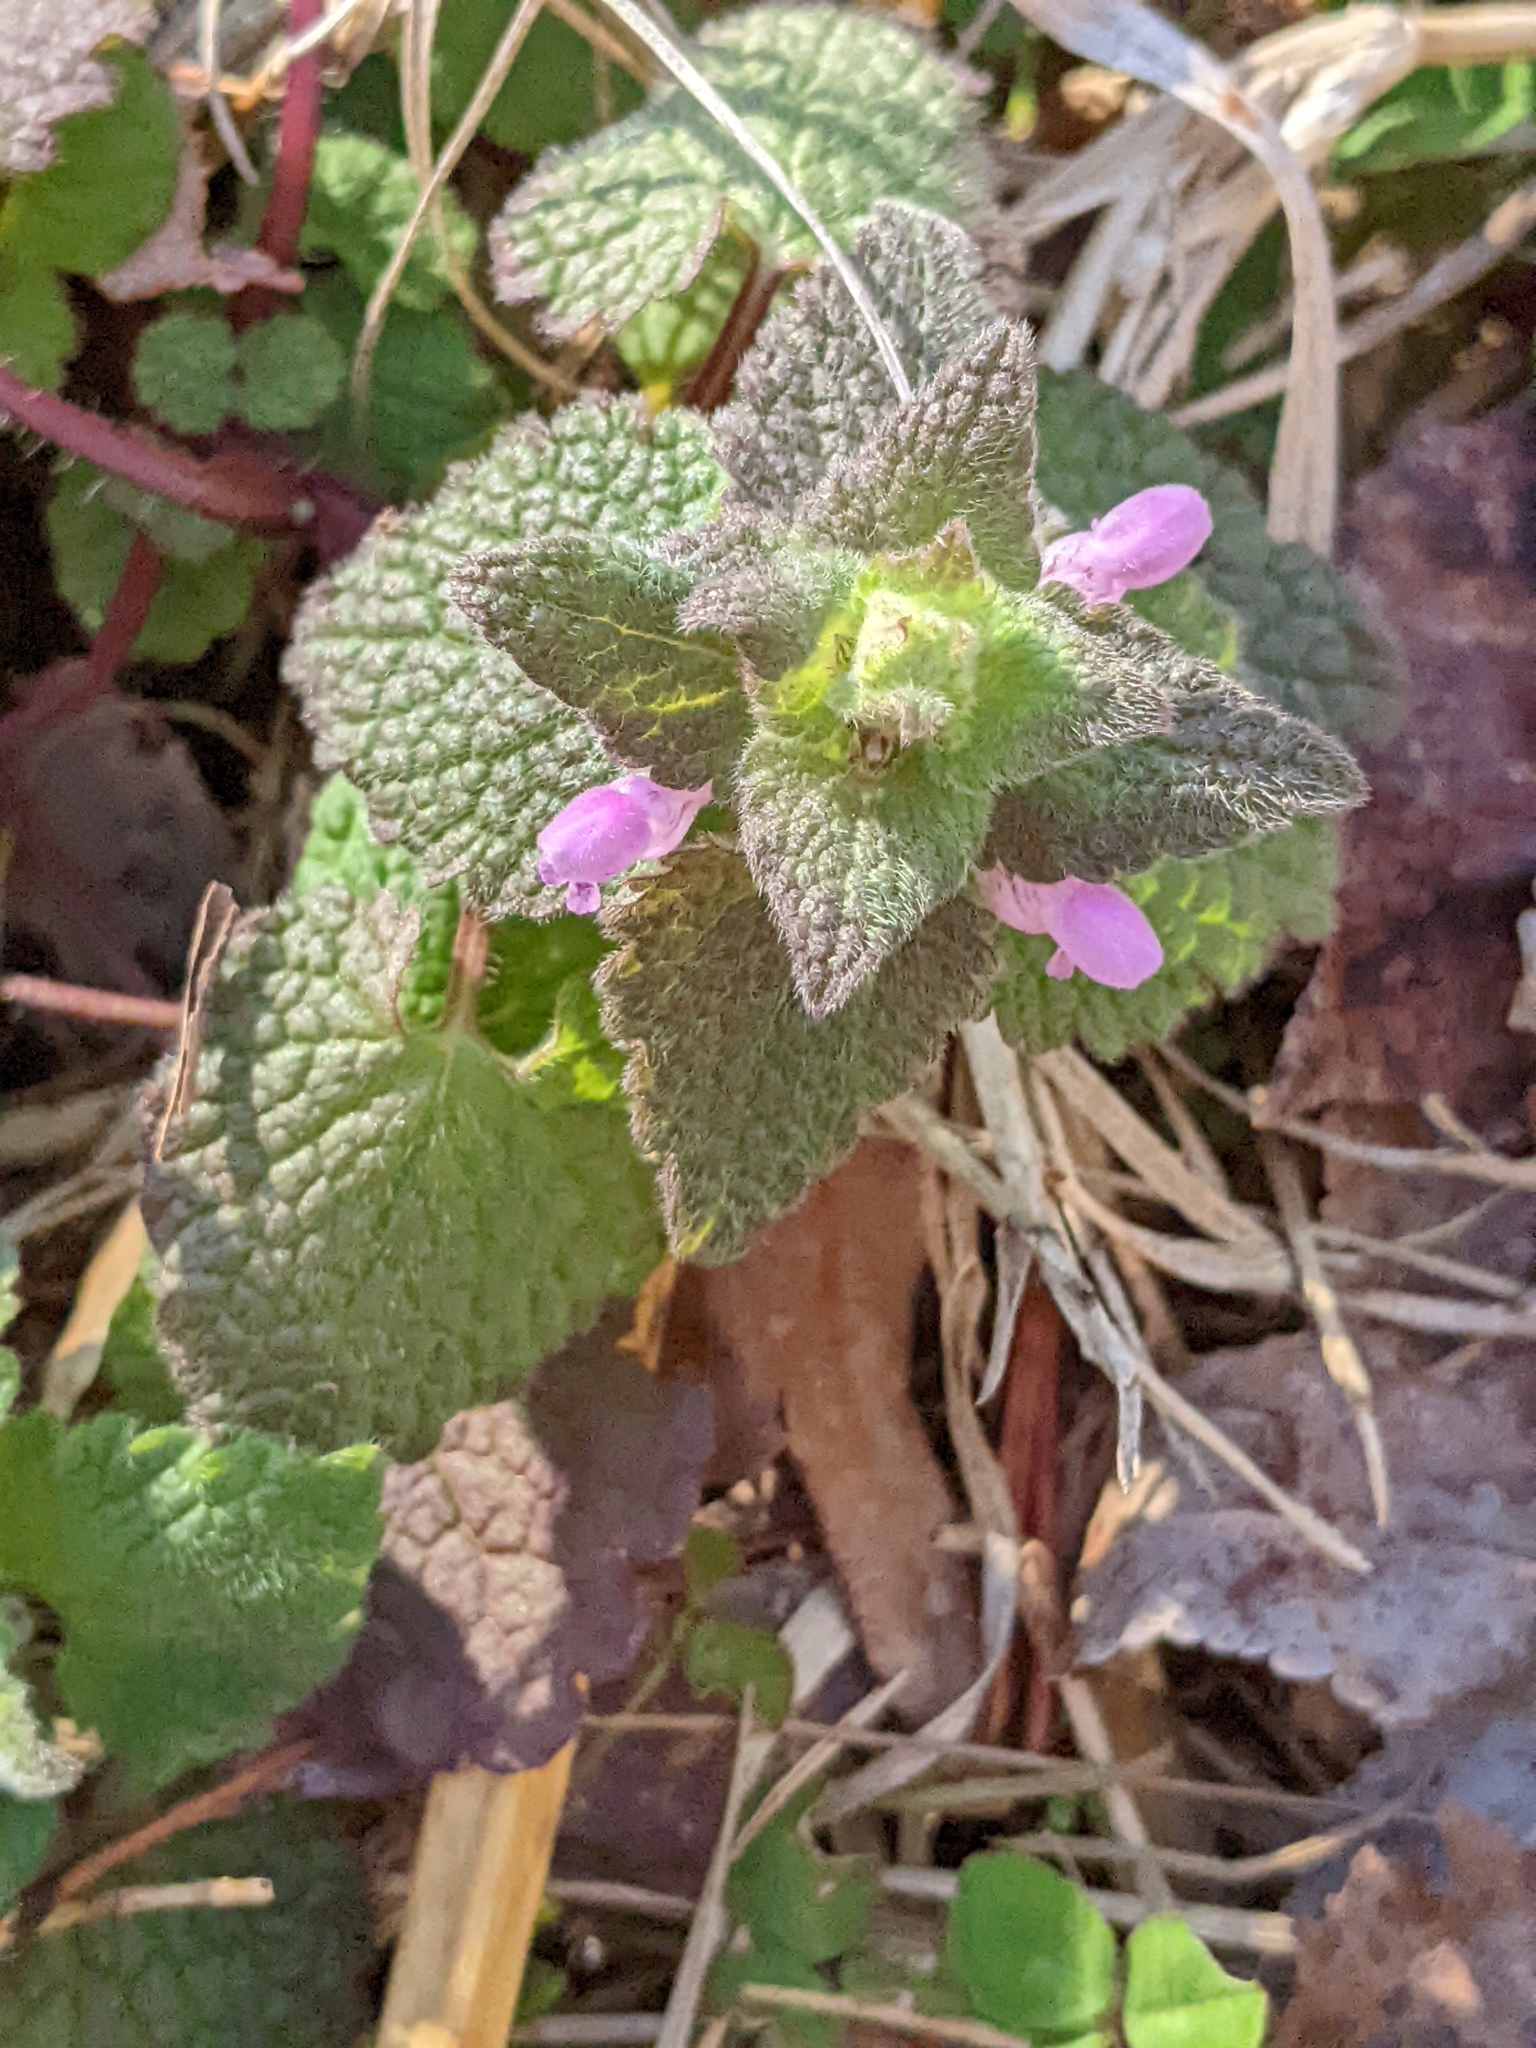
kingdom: Plantae
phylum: Tracheophyta
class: Magnoliopsida
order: Lamiales
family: Lamiaceae
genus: Lamium
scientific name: Lamium purpureum
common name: Red dead-nettle
